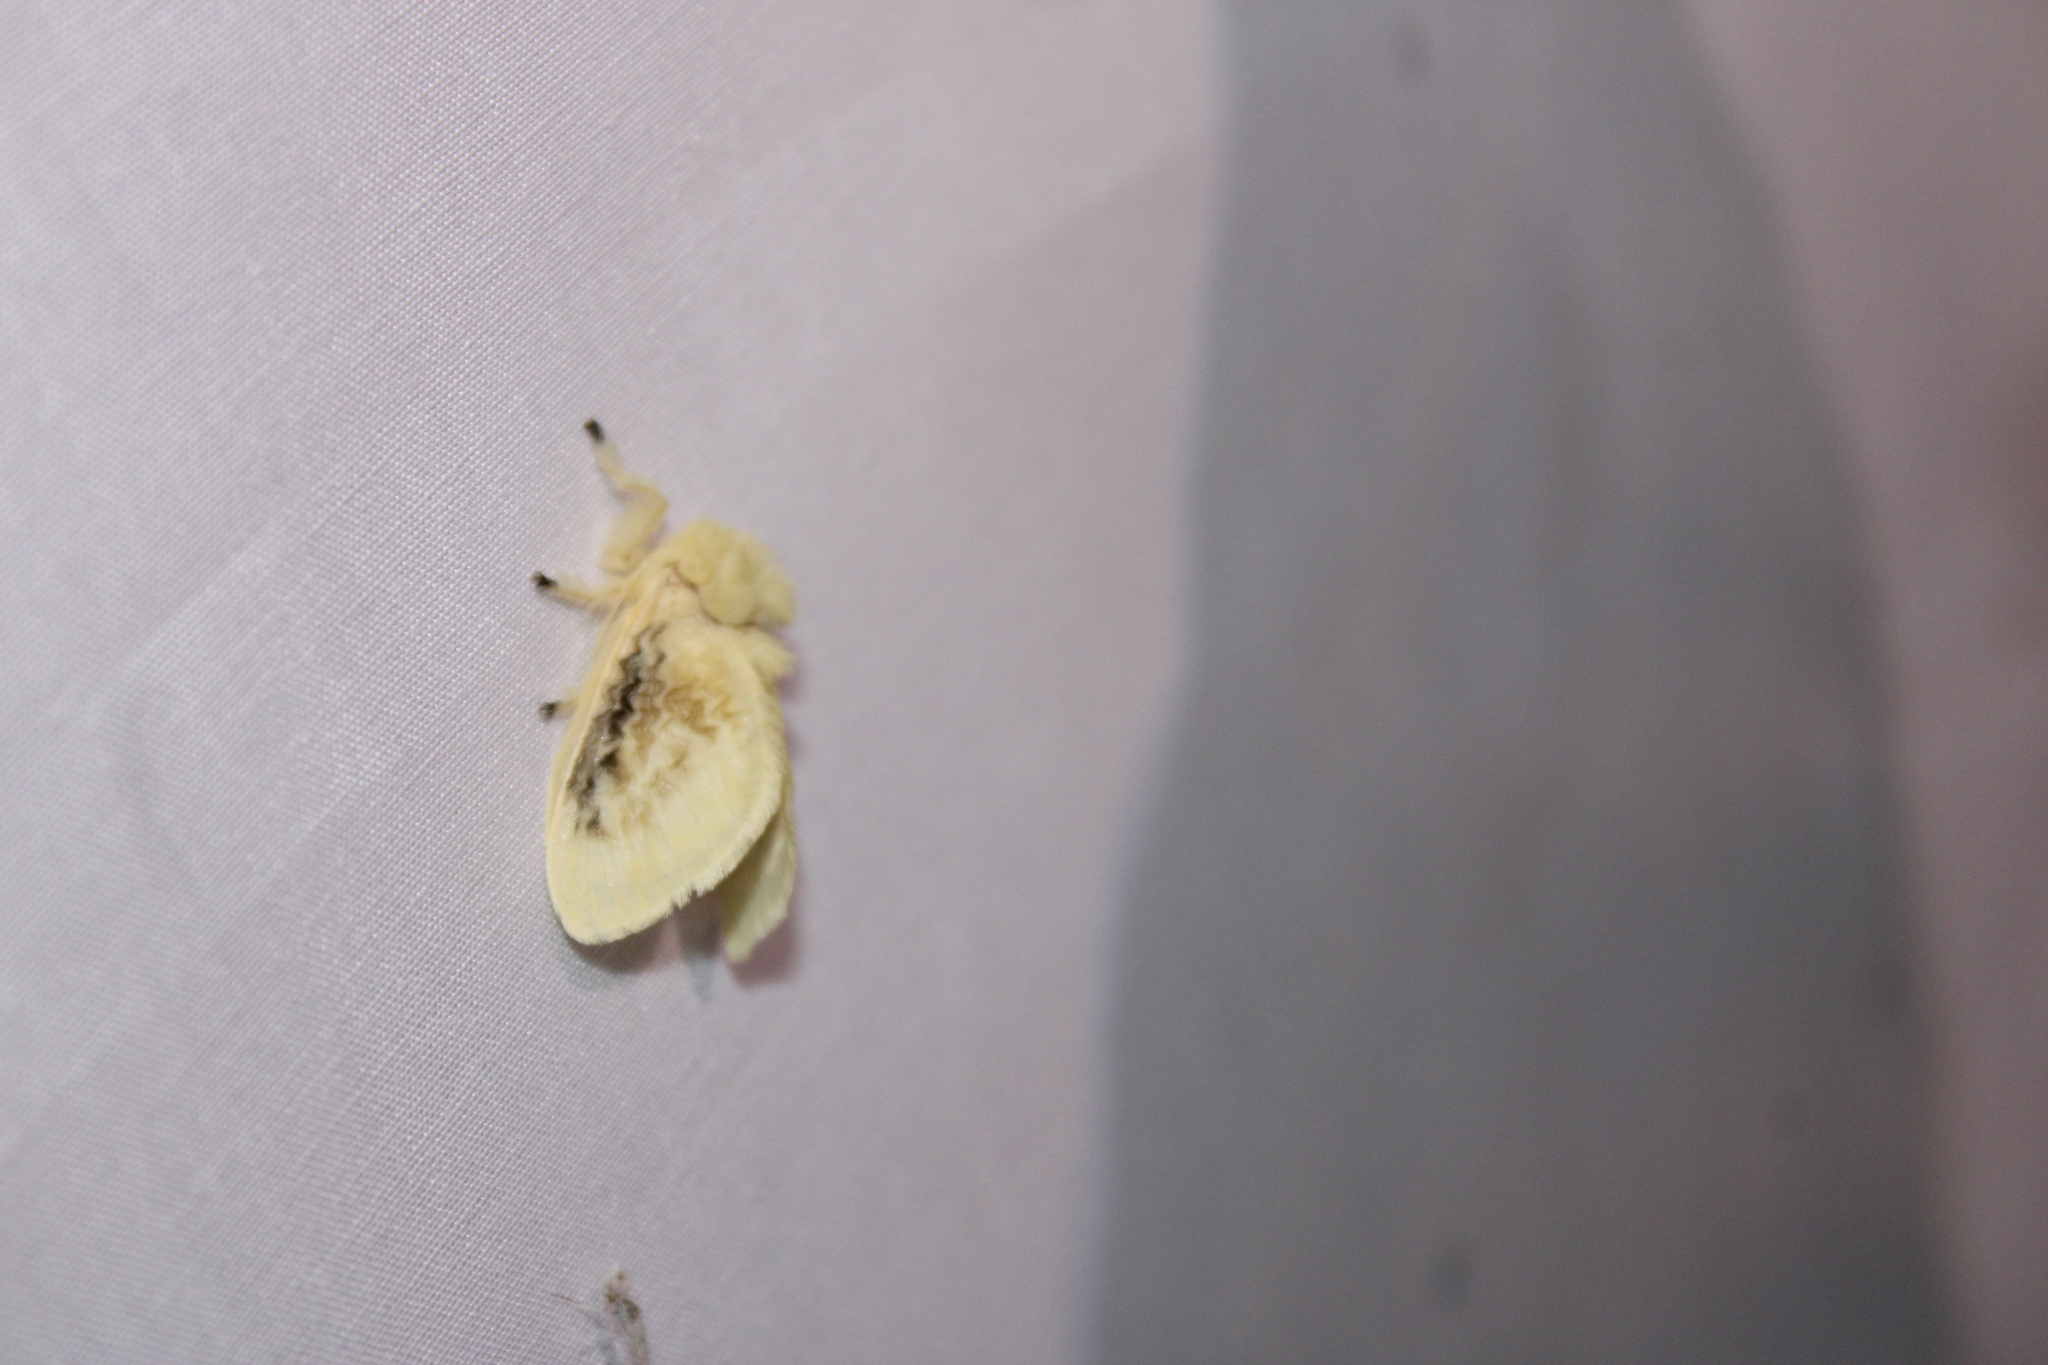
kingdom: Animalia
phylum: Arthropoda
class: Insecta
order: Lepidoptera
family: Megalopygidae
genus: Megalopyge
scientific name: Megalopyge crispata
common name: Black-waved flannel moth
